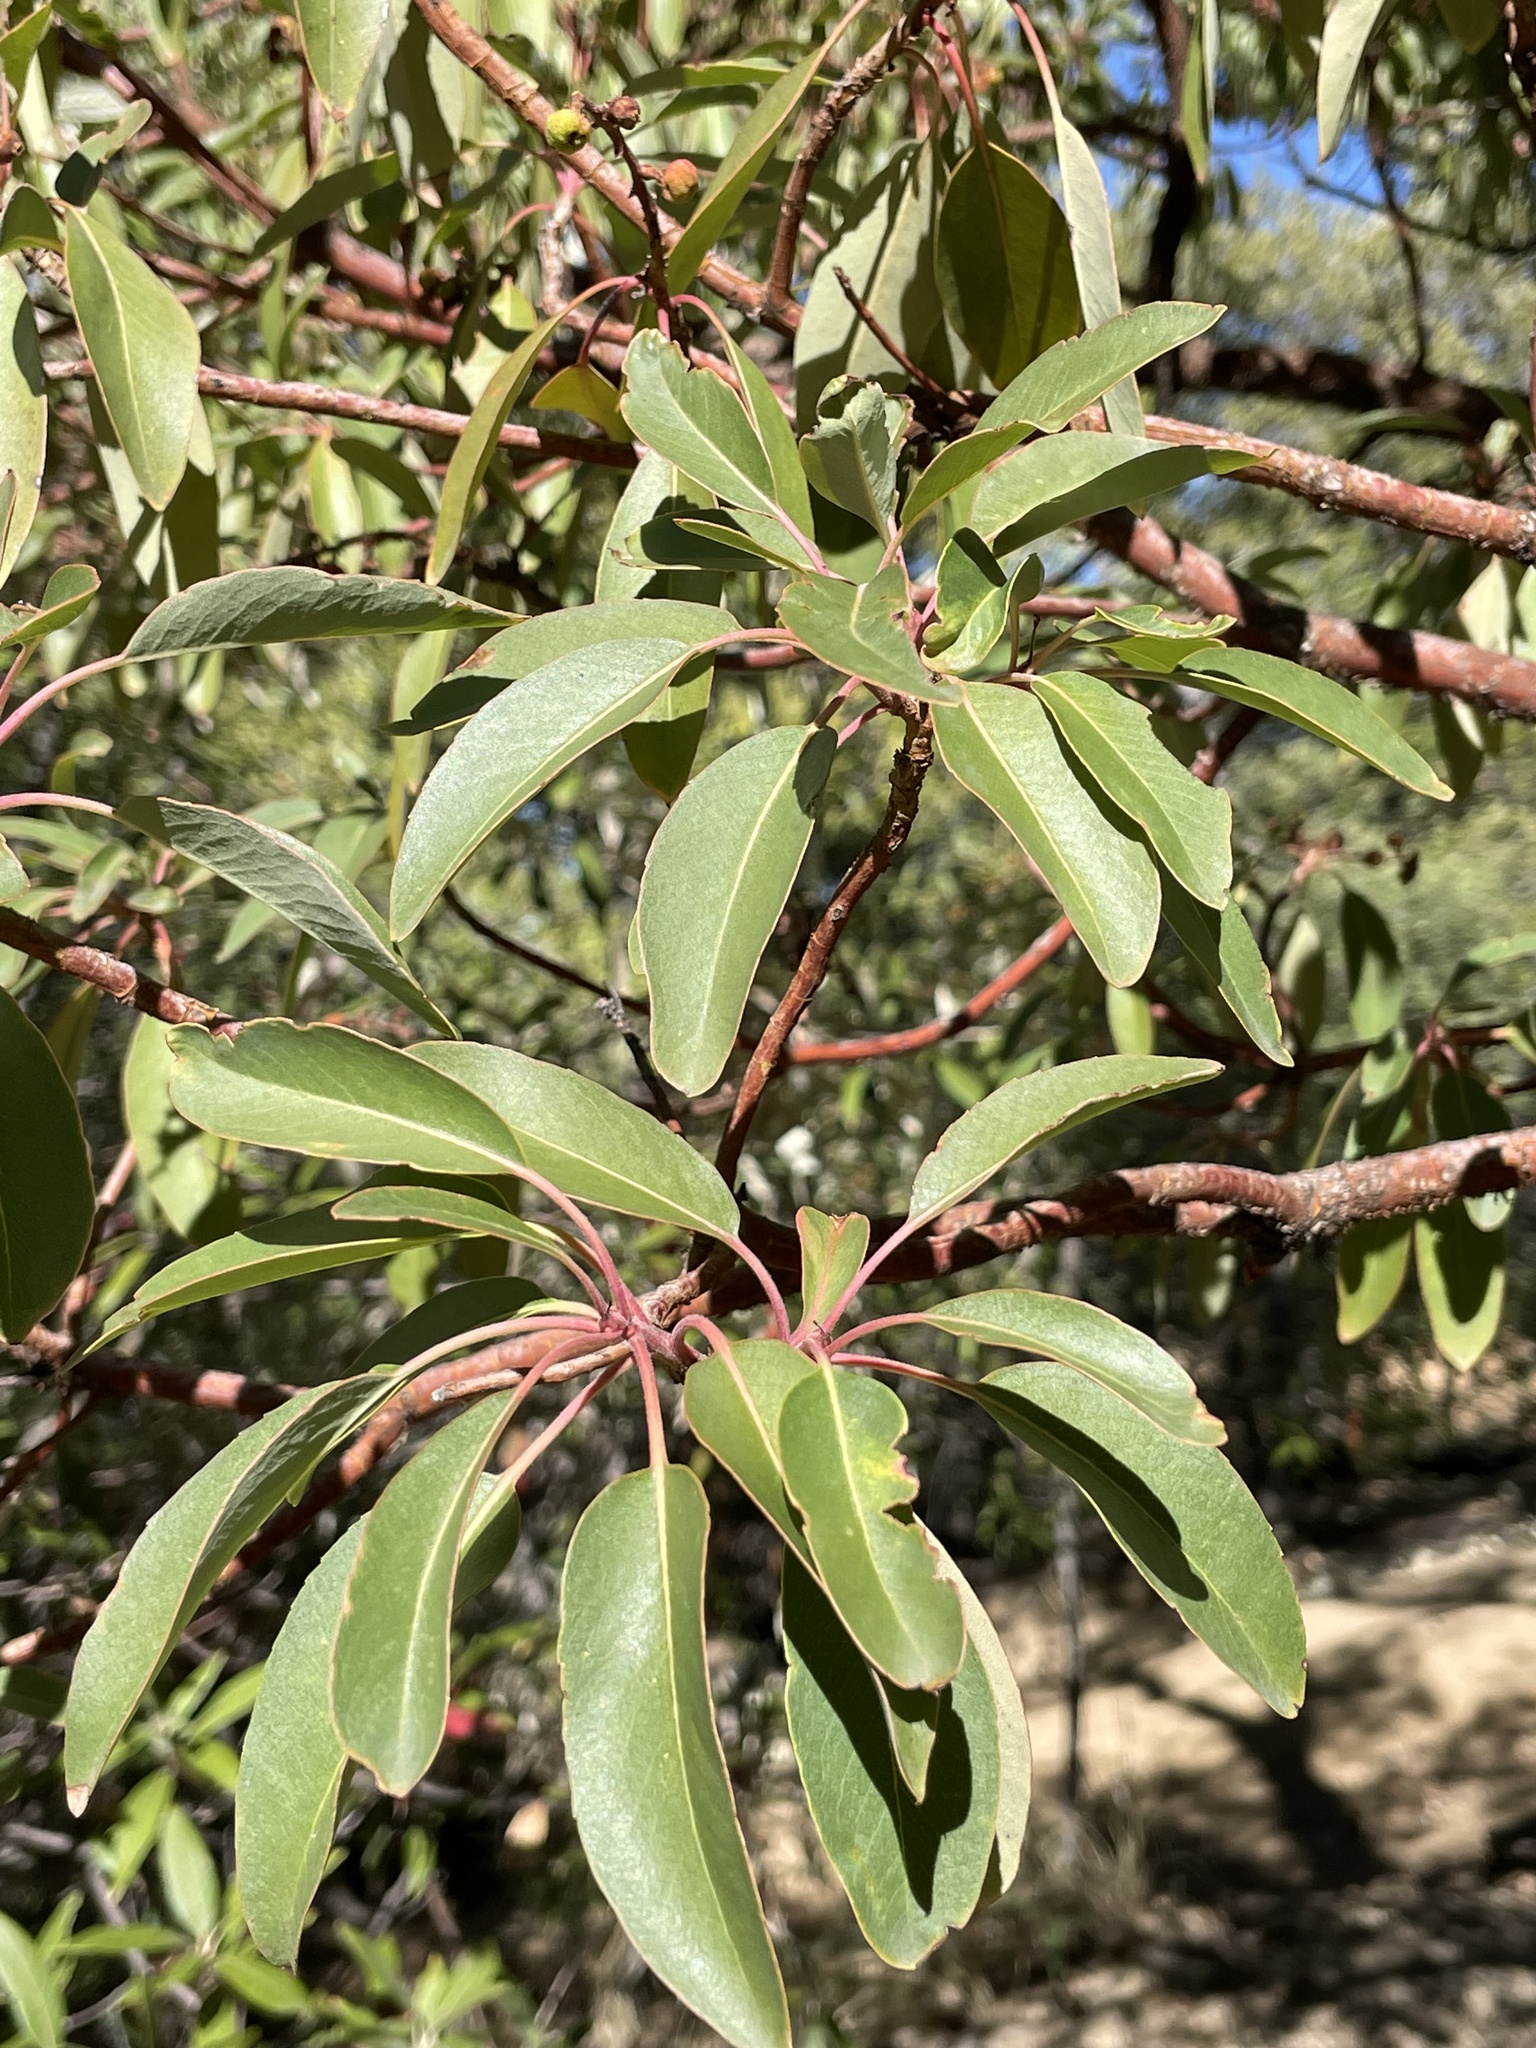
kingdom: Plantae
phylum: Tracheophyta
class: Magnoliopsida
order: Ericales
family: Ericaceae
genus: Arbutus
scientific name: Arbutus arizonica
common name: Arizona madrone
